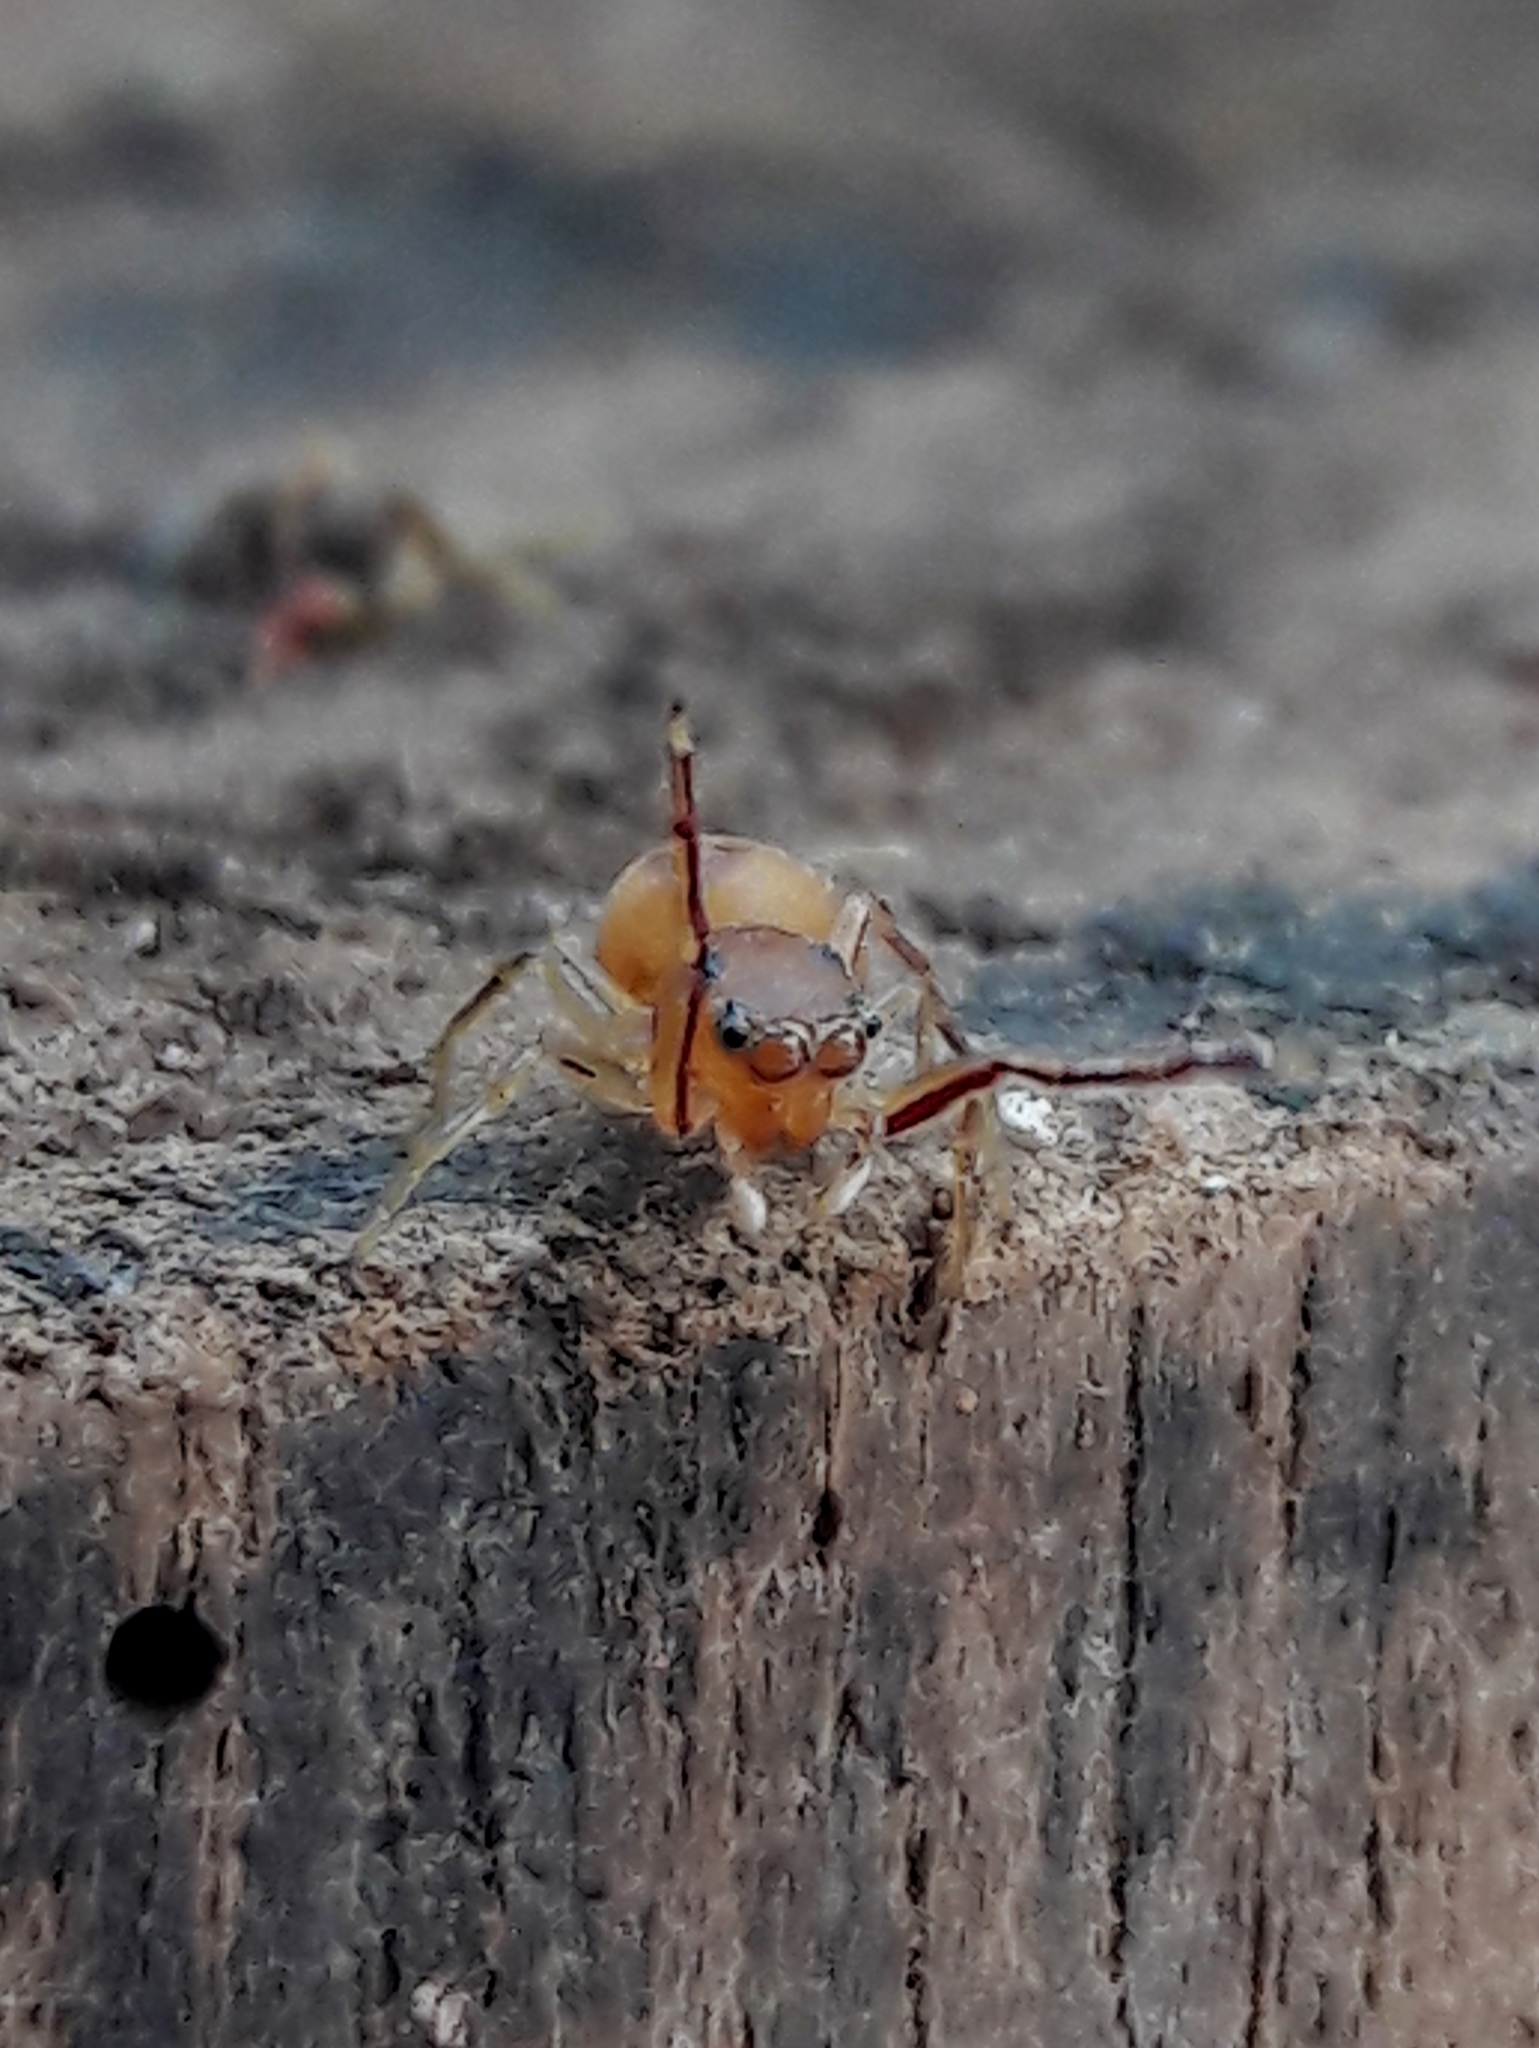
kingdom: Animalia
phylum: Arthropoda
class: Arachnida
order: Araneae
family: Salticidae
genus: Gypogyna
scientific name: Gypogyna forceps
